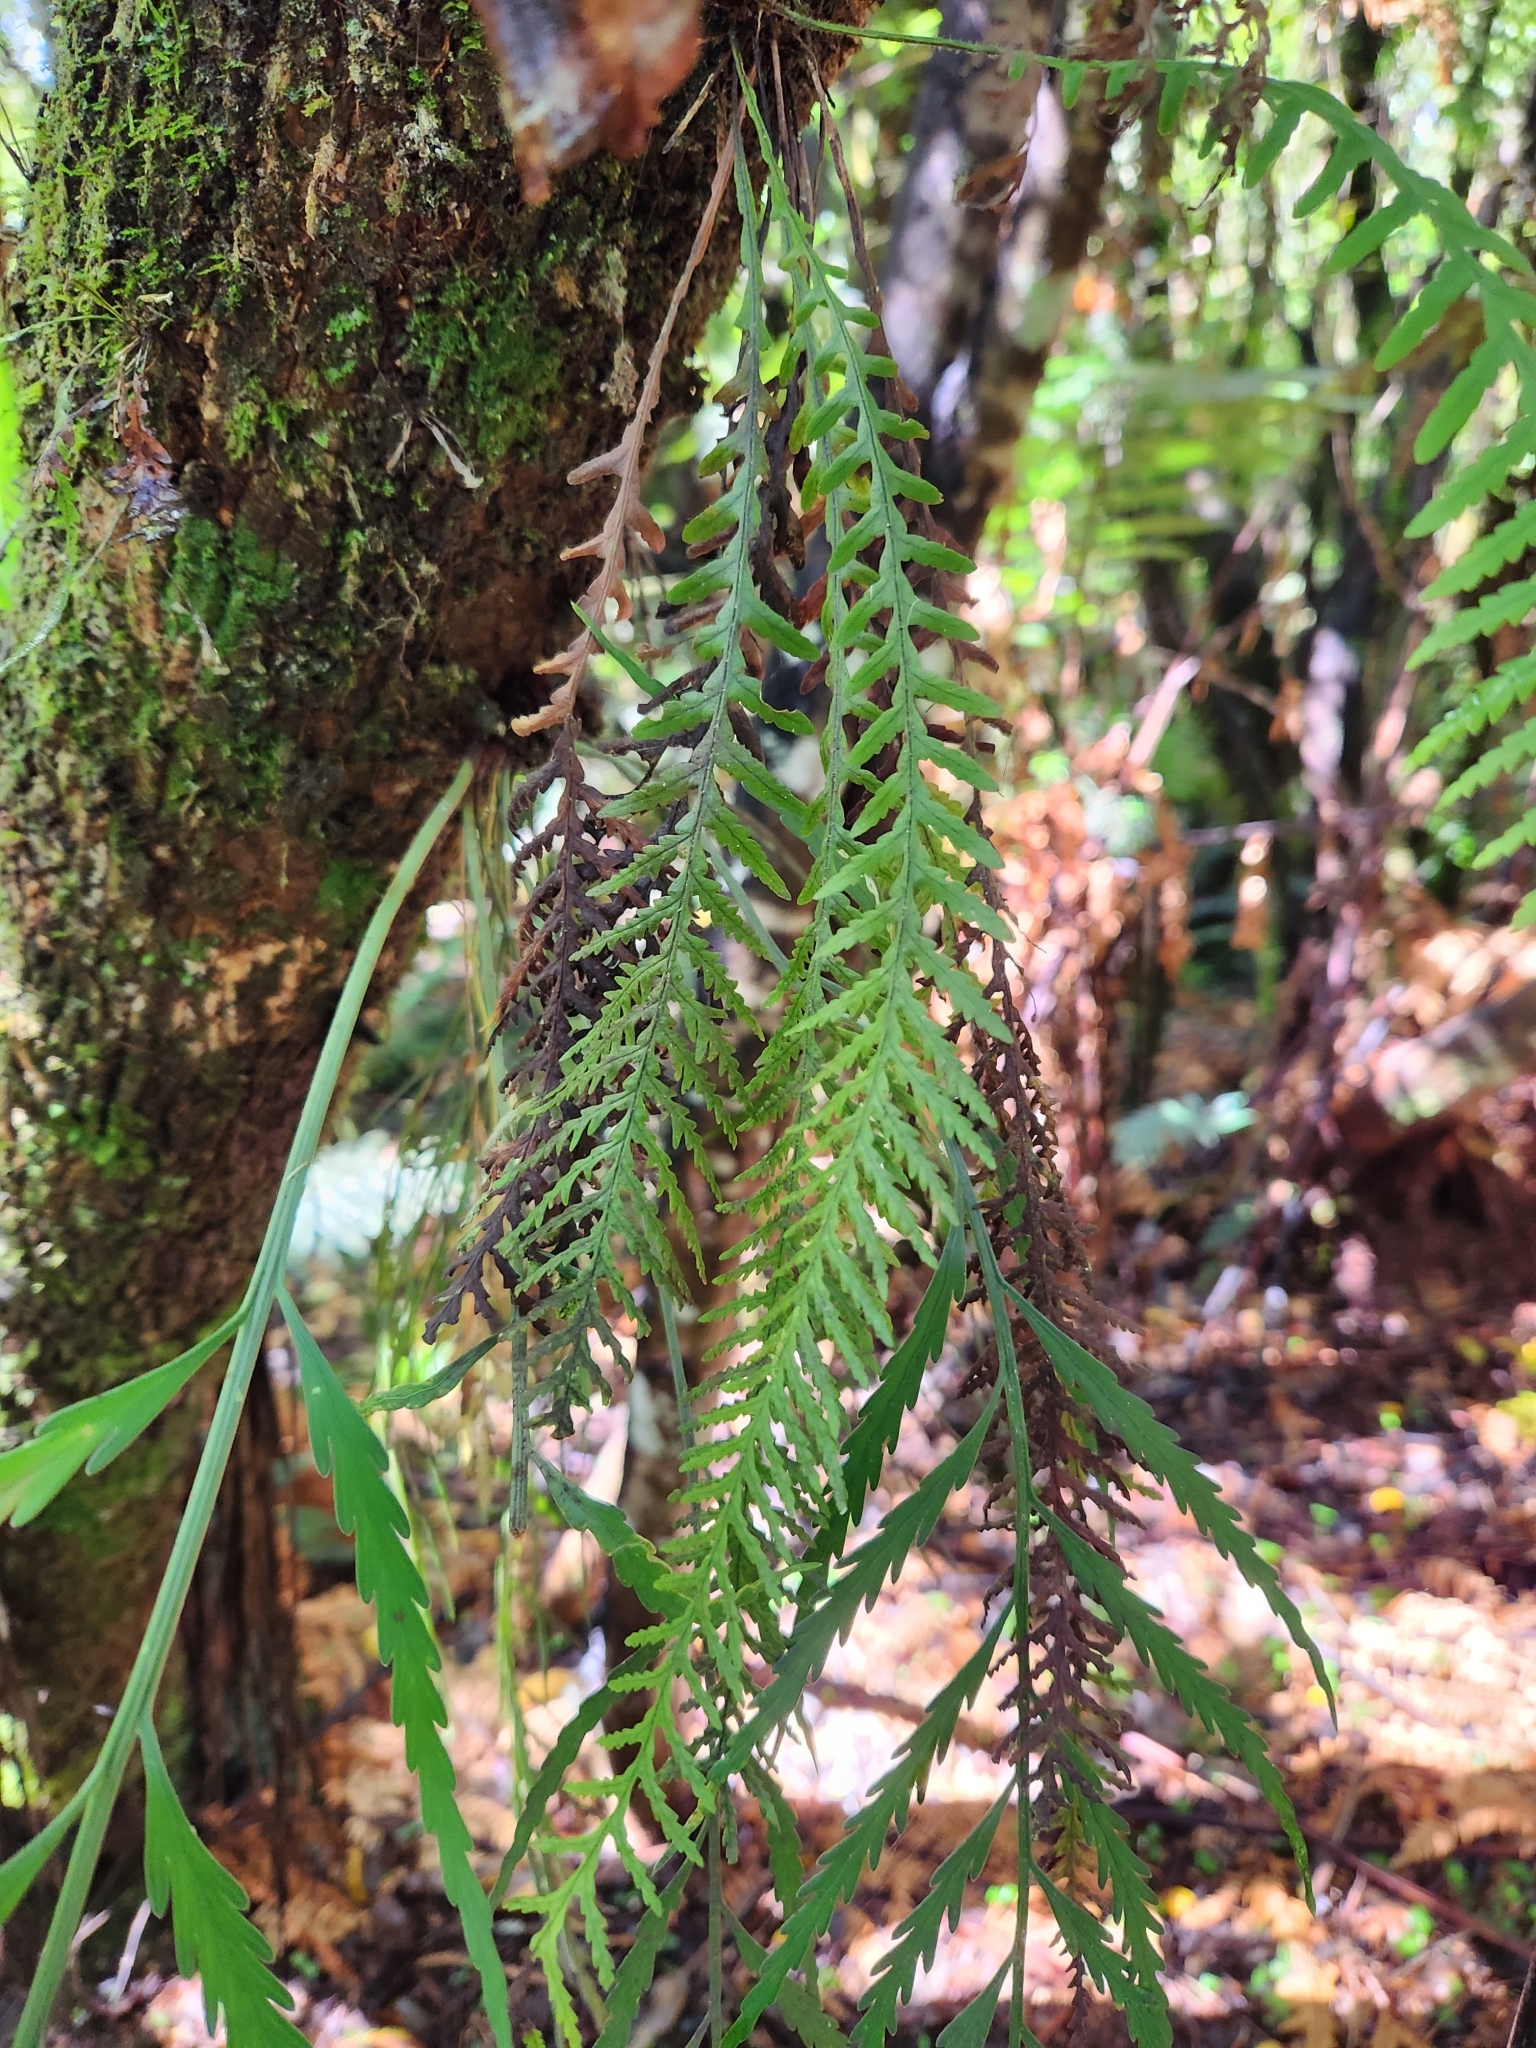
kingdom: Plantae
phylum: Tracheophyta
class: Polypodiopsida
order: Polypodiales
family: Polypodiaceae
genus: Notogrammitis
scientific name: Notogrammitis heterophylla
